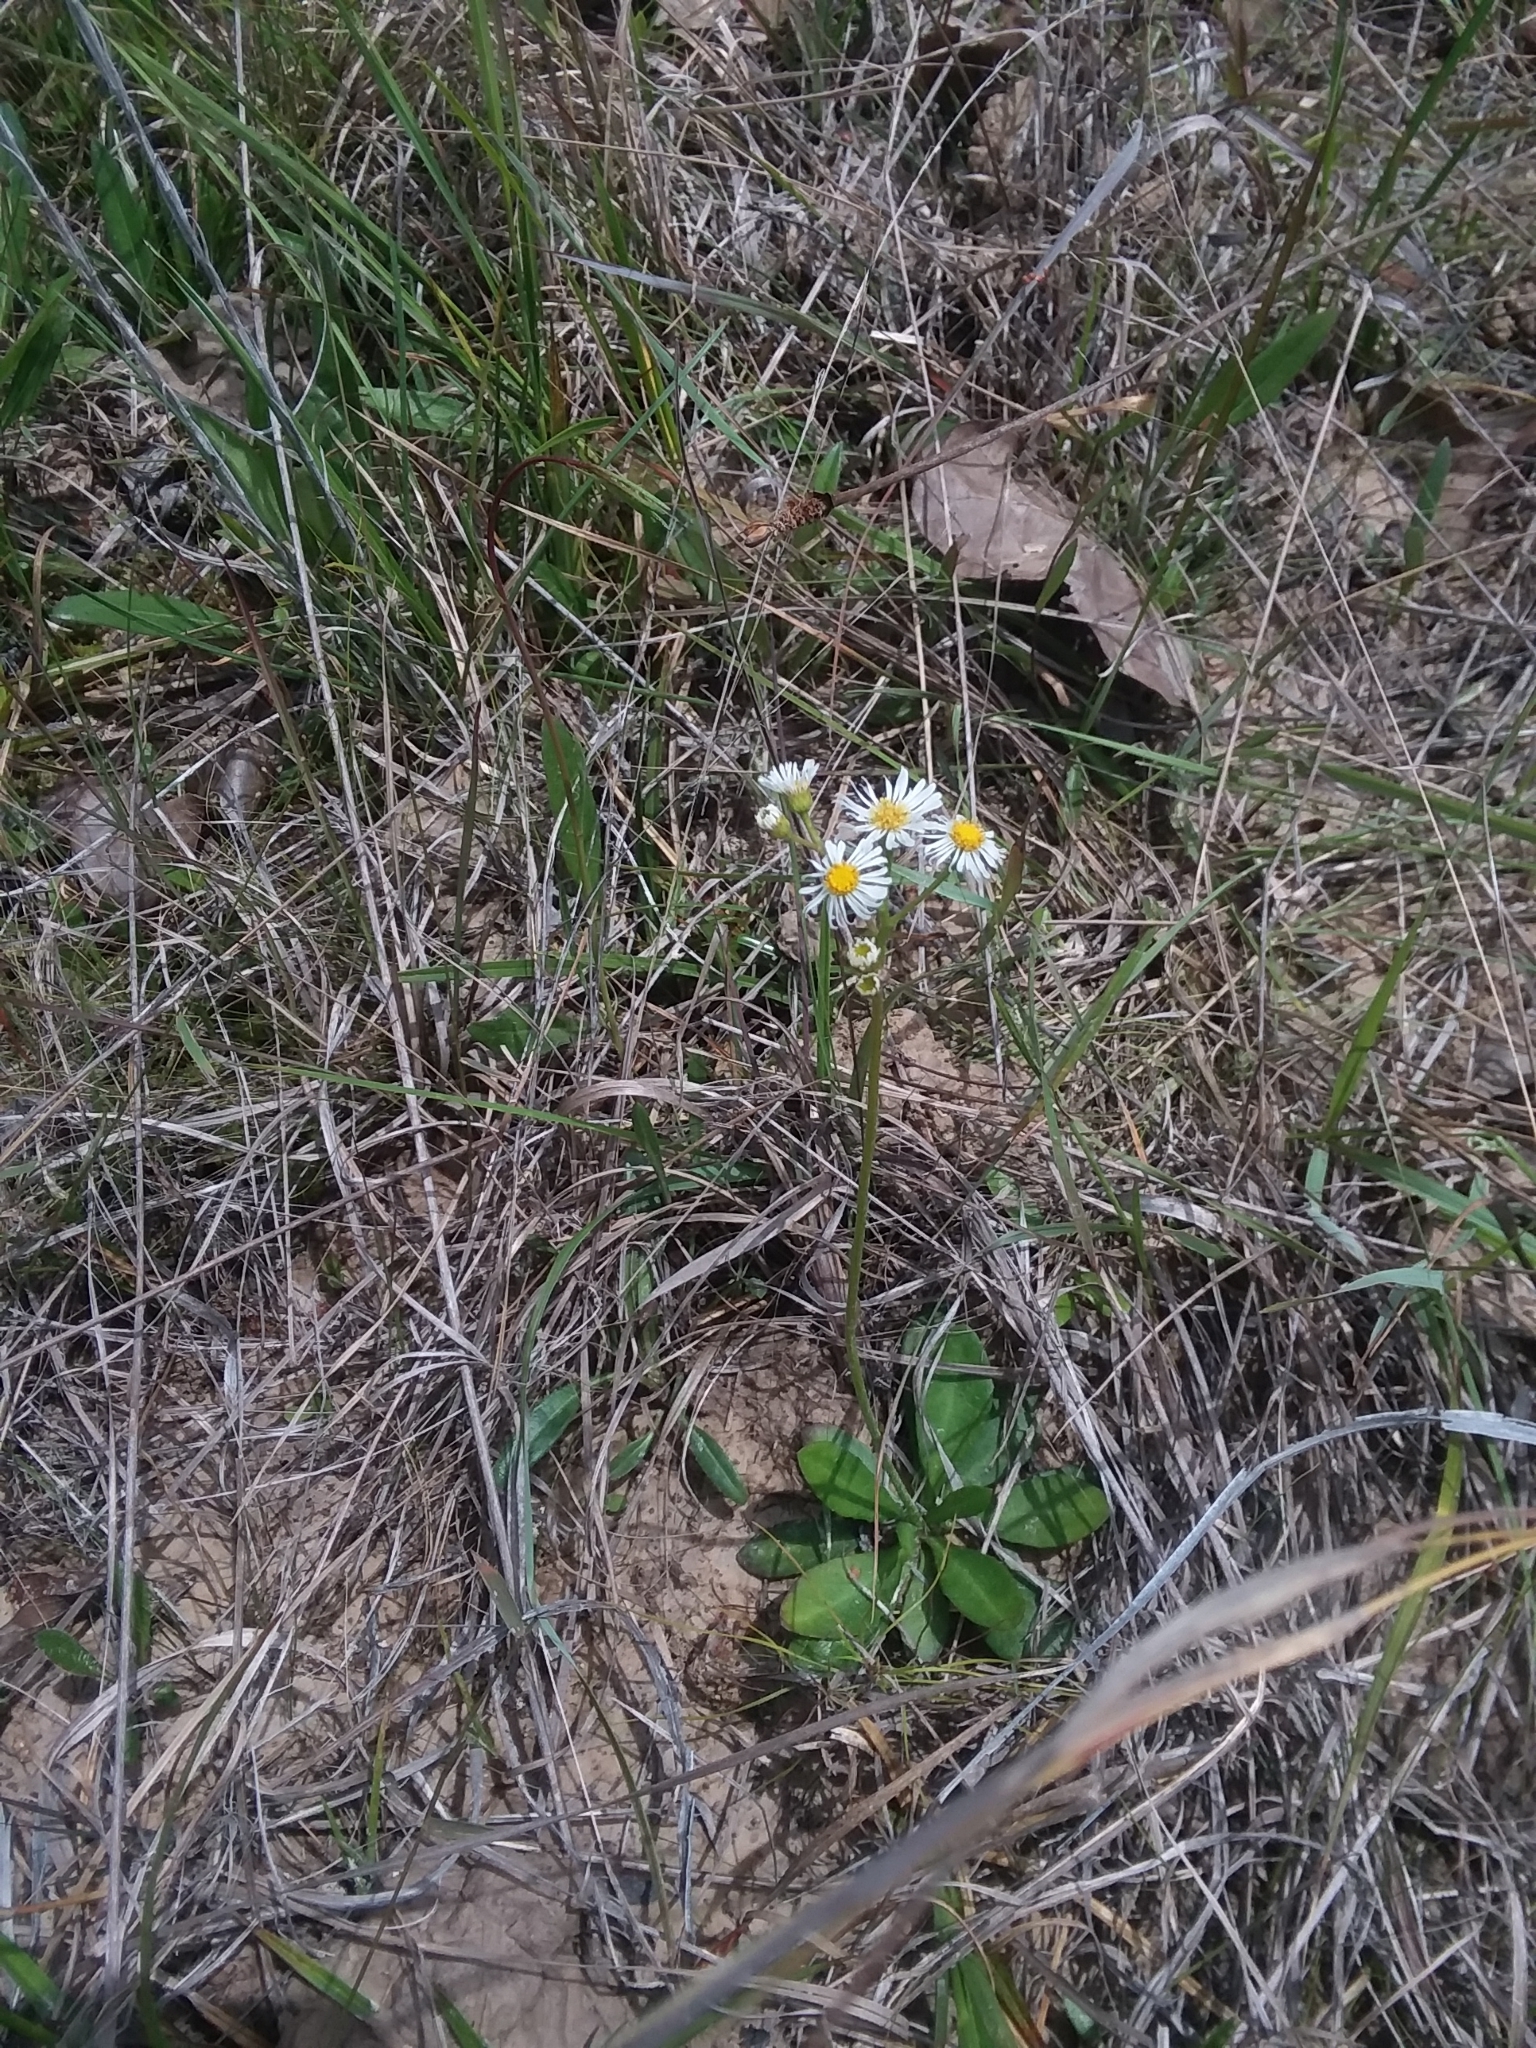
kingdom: Plantae
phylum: Tracheophyta
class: Magnoliopsida
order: Asterales
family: Asteraceae
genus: Erigeron
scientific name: Erigeron vernus
